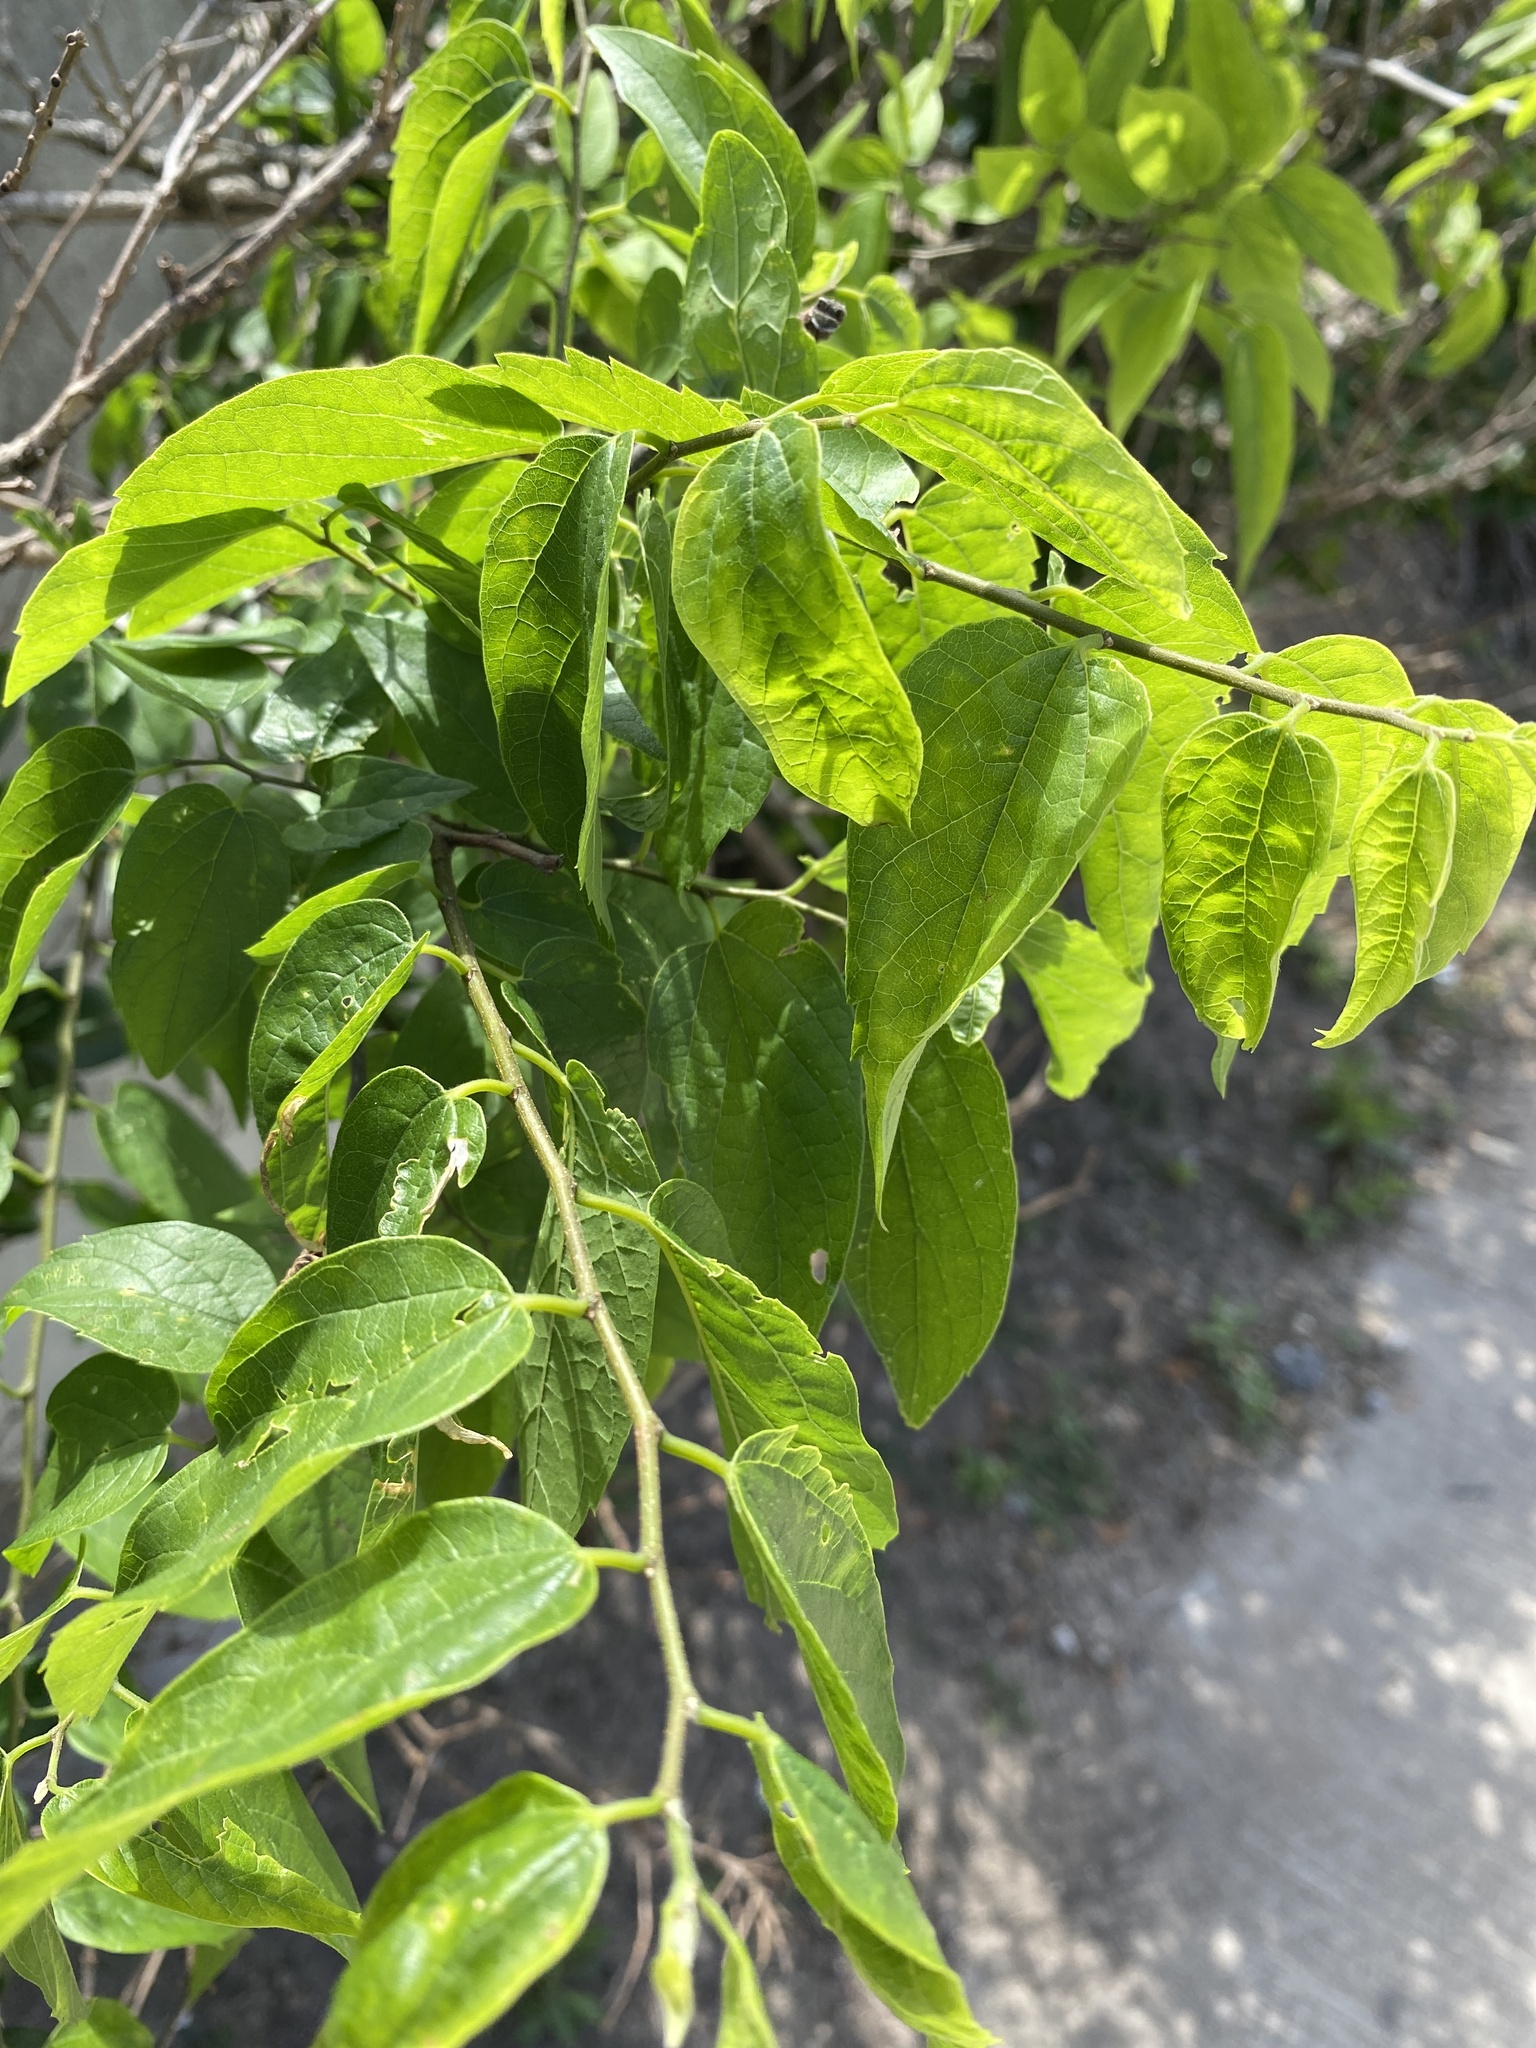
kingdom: Plantae
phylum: Tracheophyta
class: Magnoliopsida
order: Rosales
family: Cannabaceae
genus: Celtis
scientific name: Celtis laevigata
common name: Sugarberry
